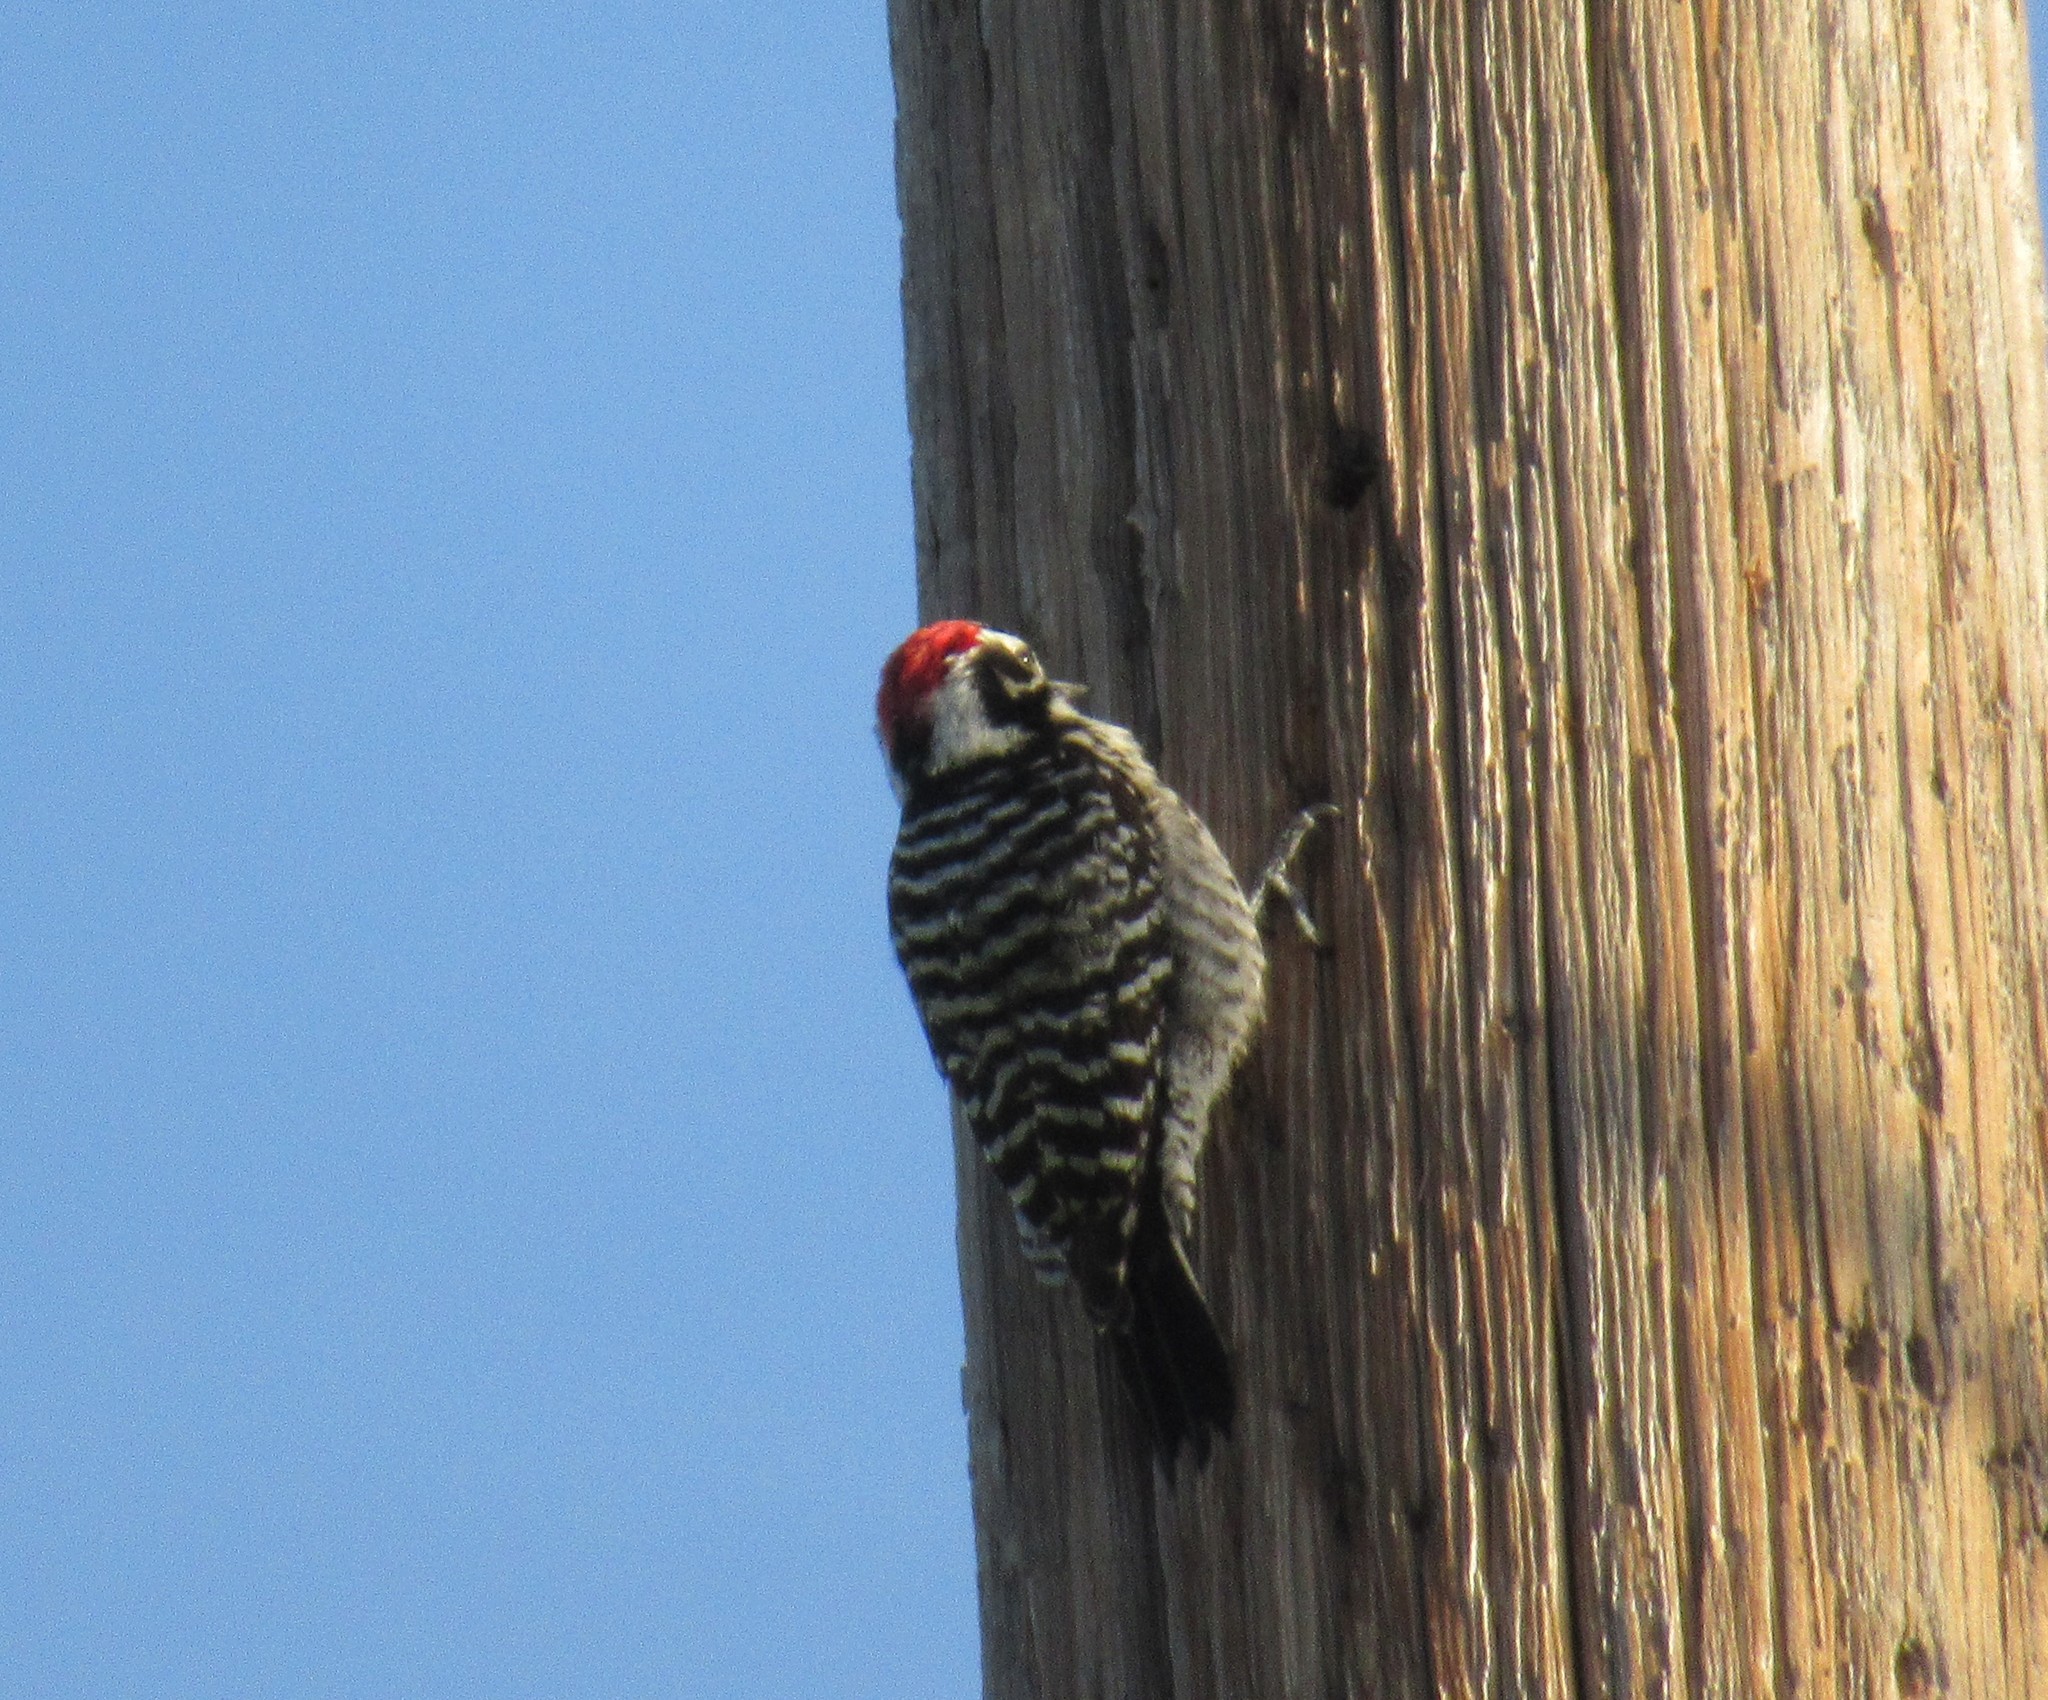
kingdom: Animalia
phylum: Chordata
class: Aves
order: Piciformes
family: Picidae
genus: Dryobates
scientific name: Dryobates nuttallii
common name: Nuttall's woodpecker
